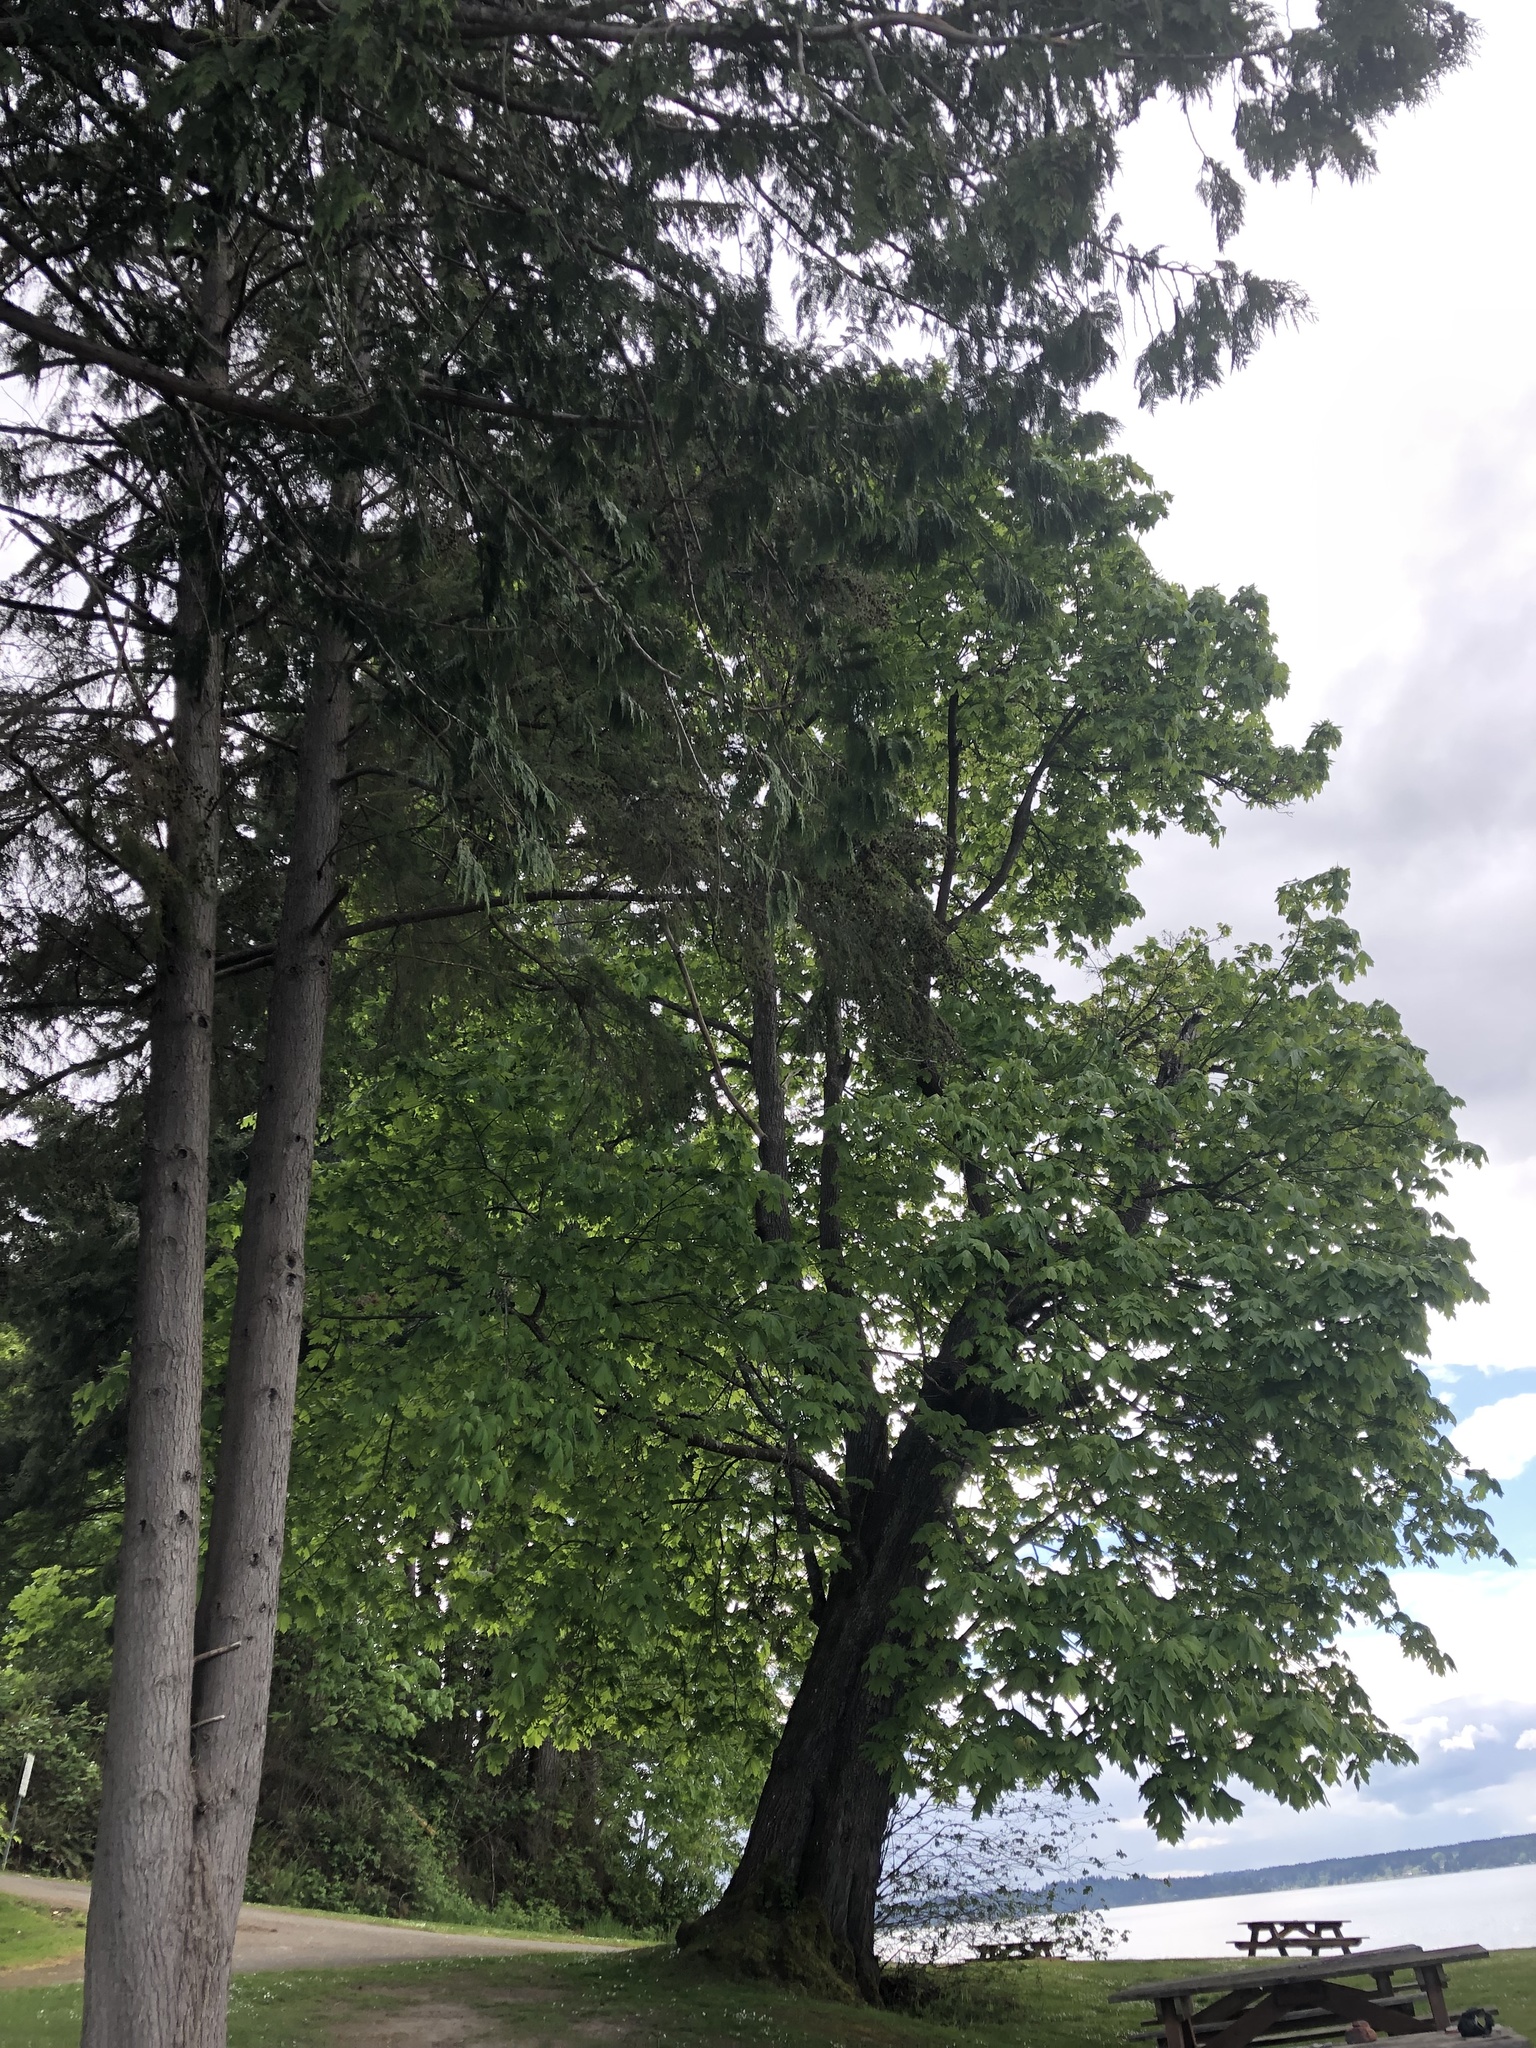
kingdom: Plantae
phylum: Tracheophyta
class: Magnoliopsida
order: Sapindales
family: Sapindaceae
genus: Acer
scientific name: Acer macrophyllum
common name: Oregon maple
